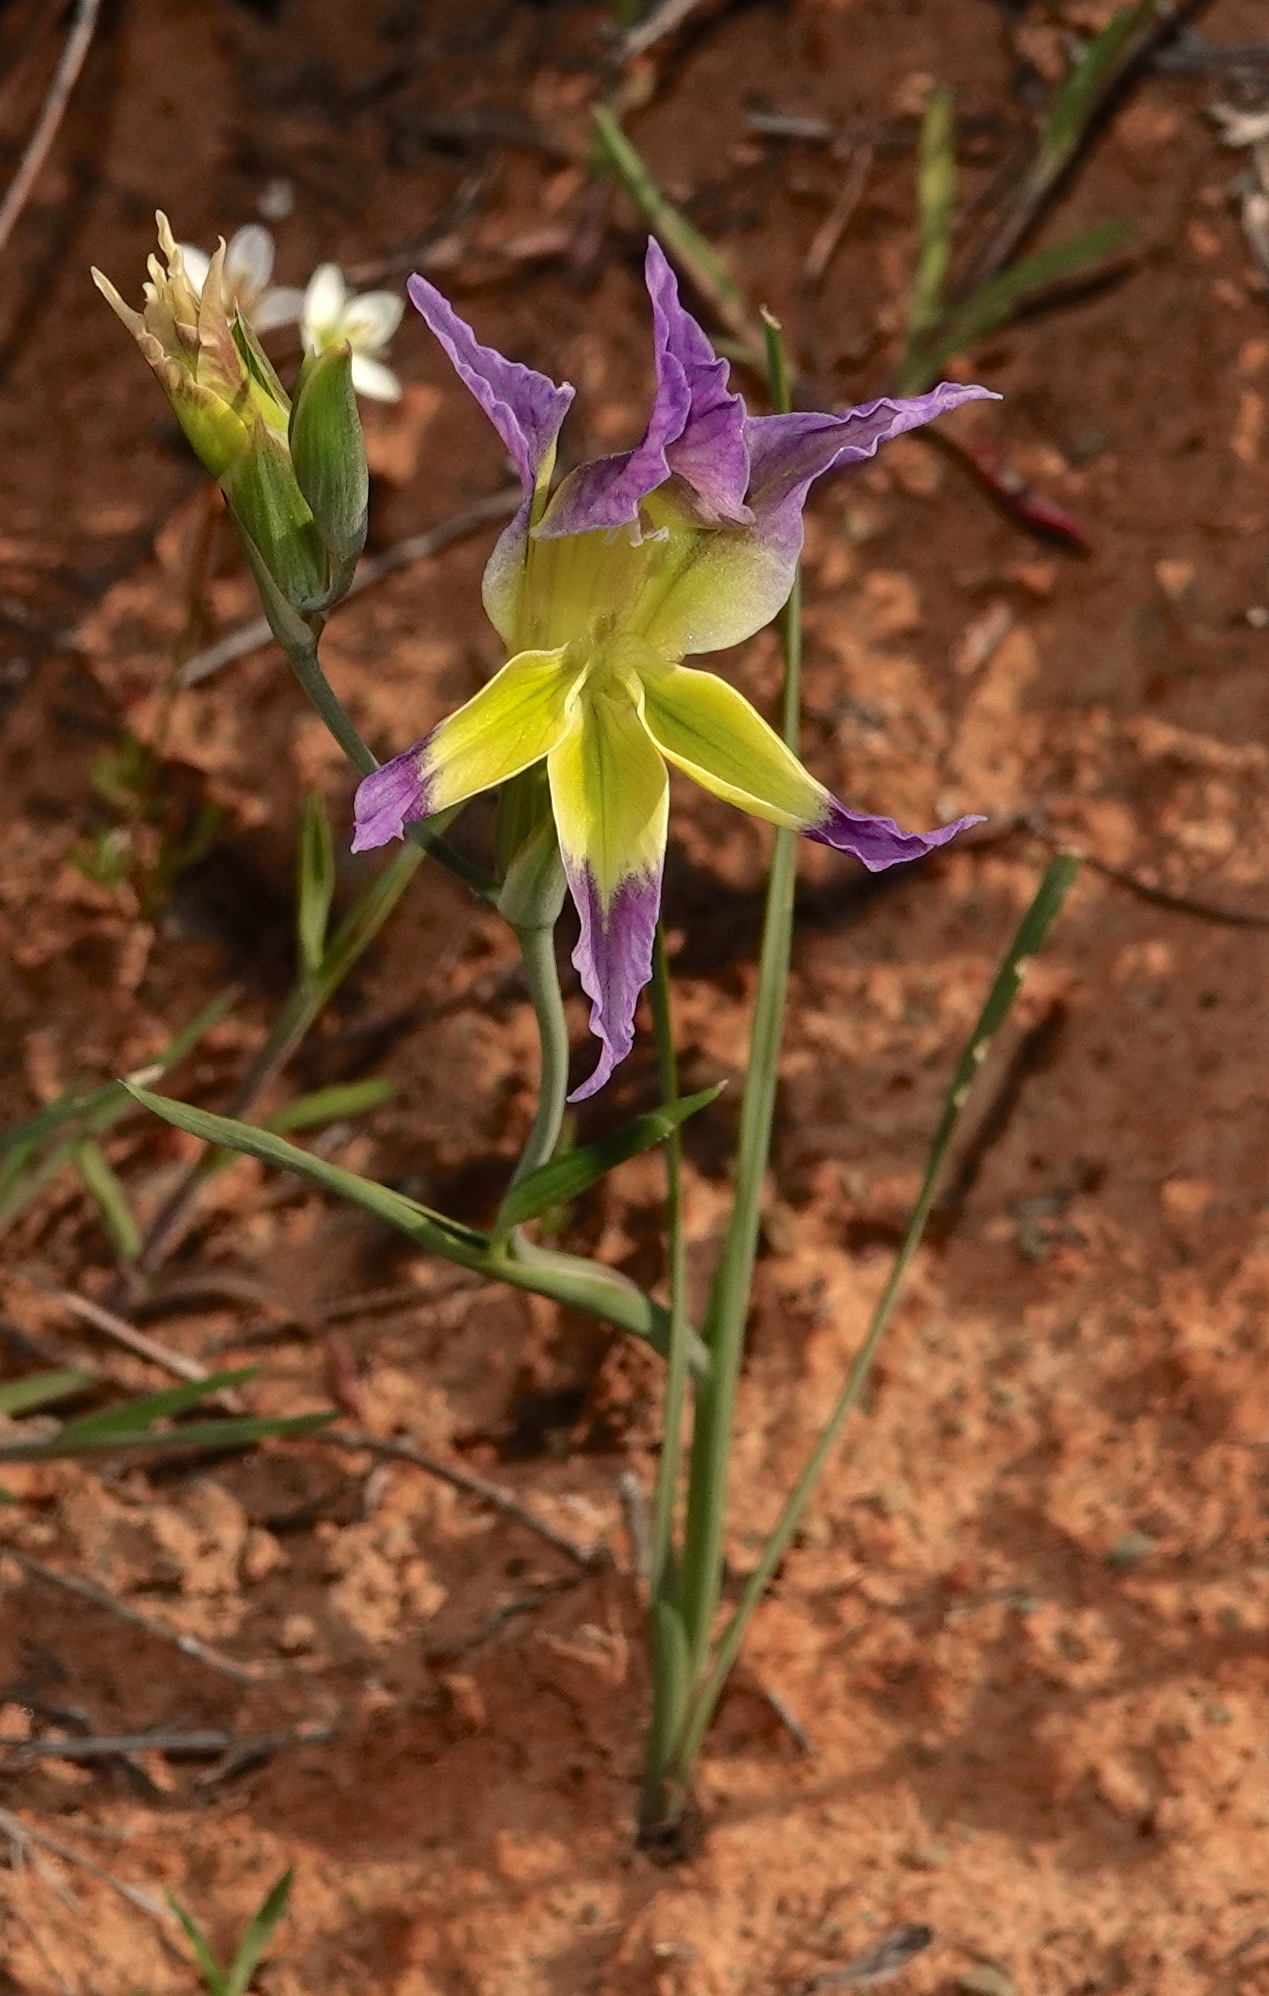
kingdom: Plantae
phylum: Tracheophyta
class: Liliopsida
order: Asparagales
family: Iridaceae
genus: Gladiolus
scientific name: Gladiolus venustus
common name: Purple kalkoentjie
